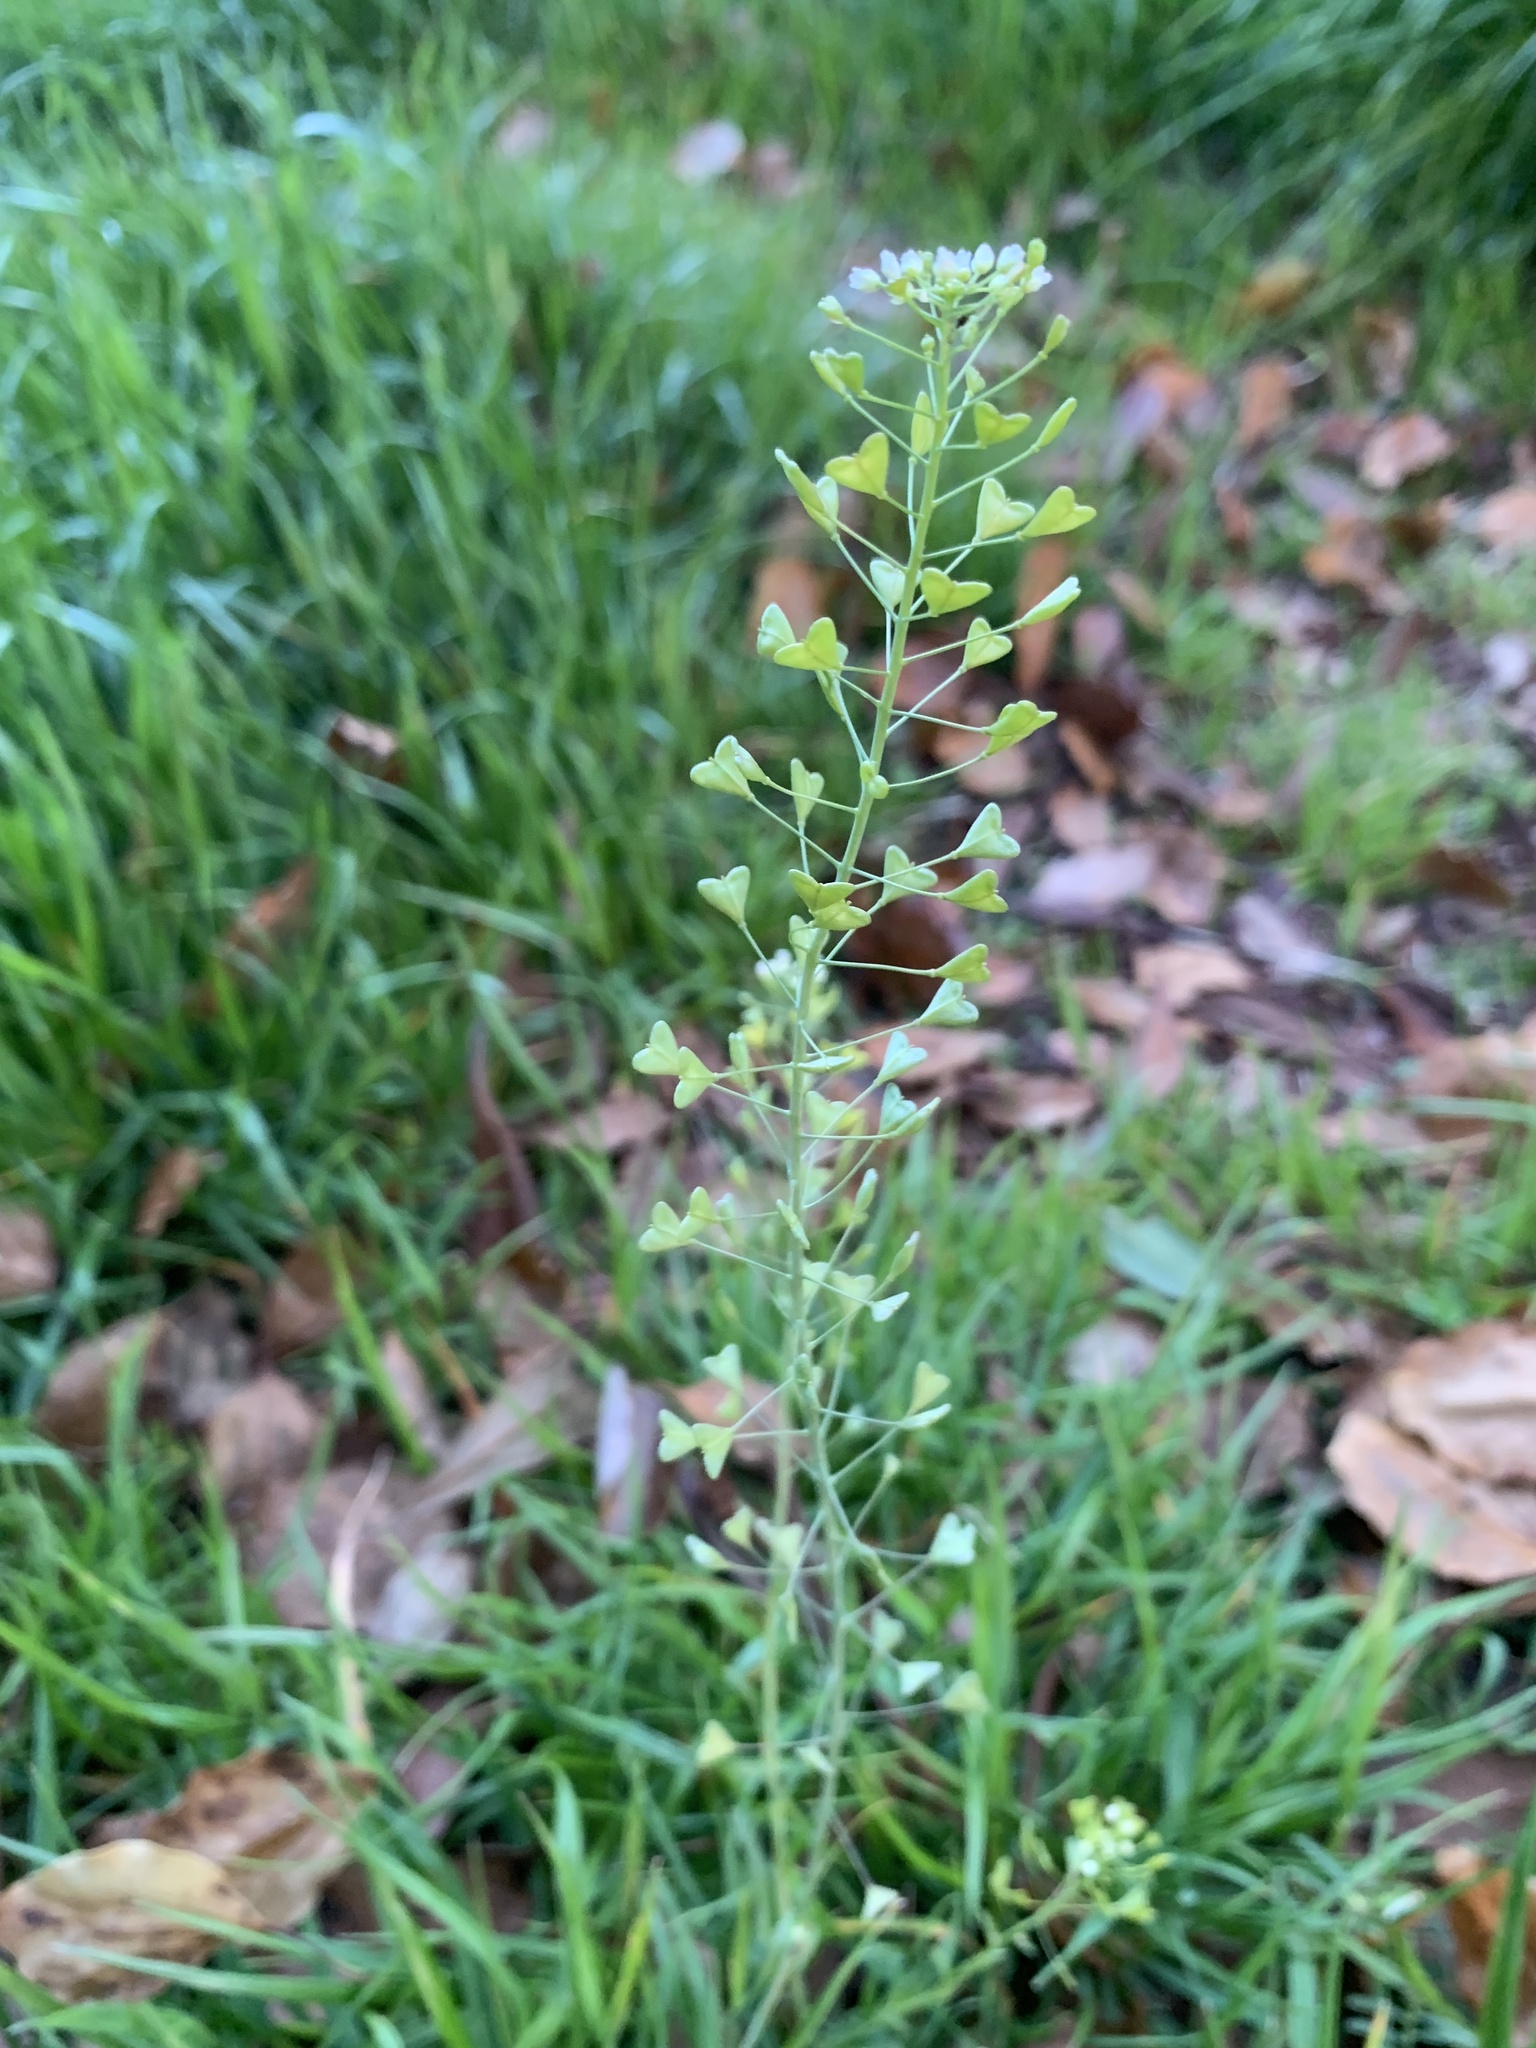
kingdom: Plantae
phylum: Tracheophyta
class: Magnoliopsida
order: Brassicales
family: Brassicaceae
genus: Capsella
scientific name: Capsella bursa-pastoris
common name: Shepherd's purse
